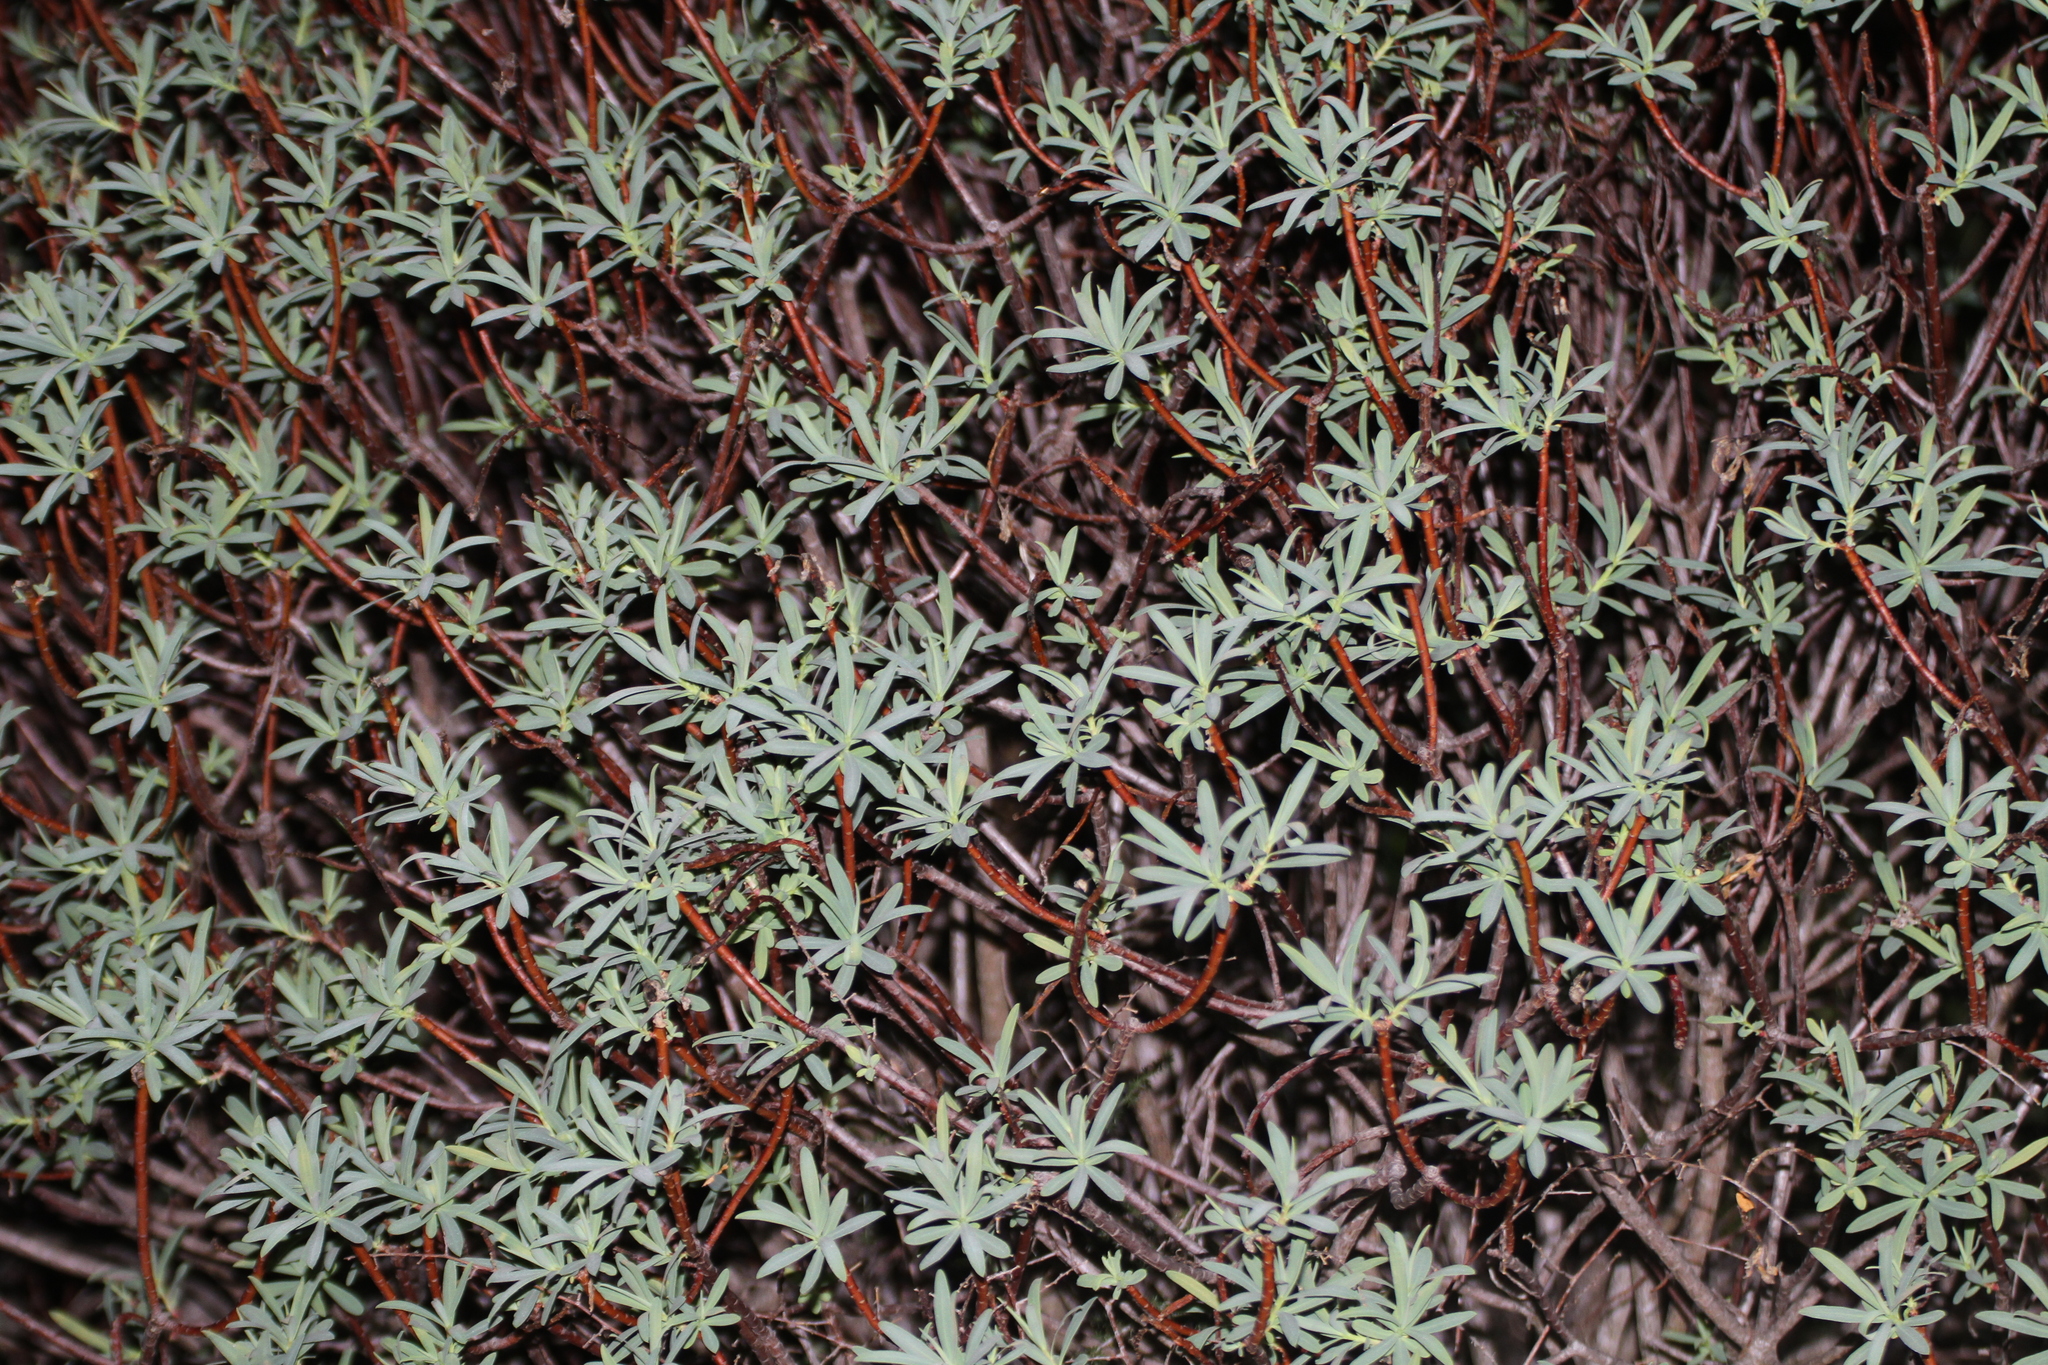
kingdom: Plantae
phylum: Tracheophyta
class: Magnoliopsida
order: Malpighiales
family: Euphorbiaceae
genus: Euphorbia
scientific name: Euphorbia dendroides
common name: Tree spurge
